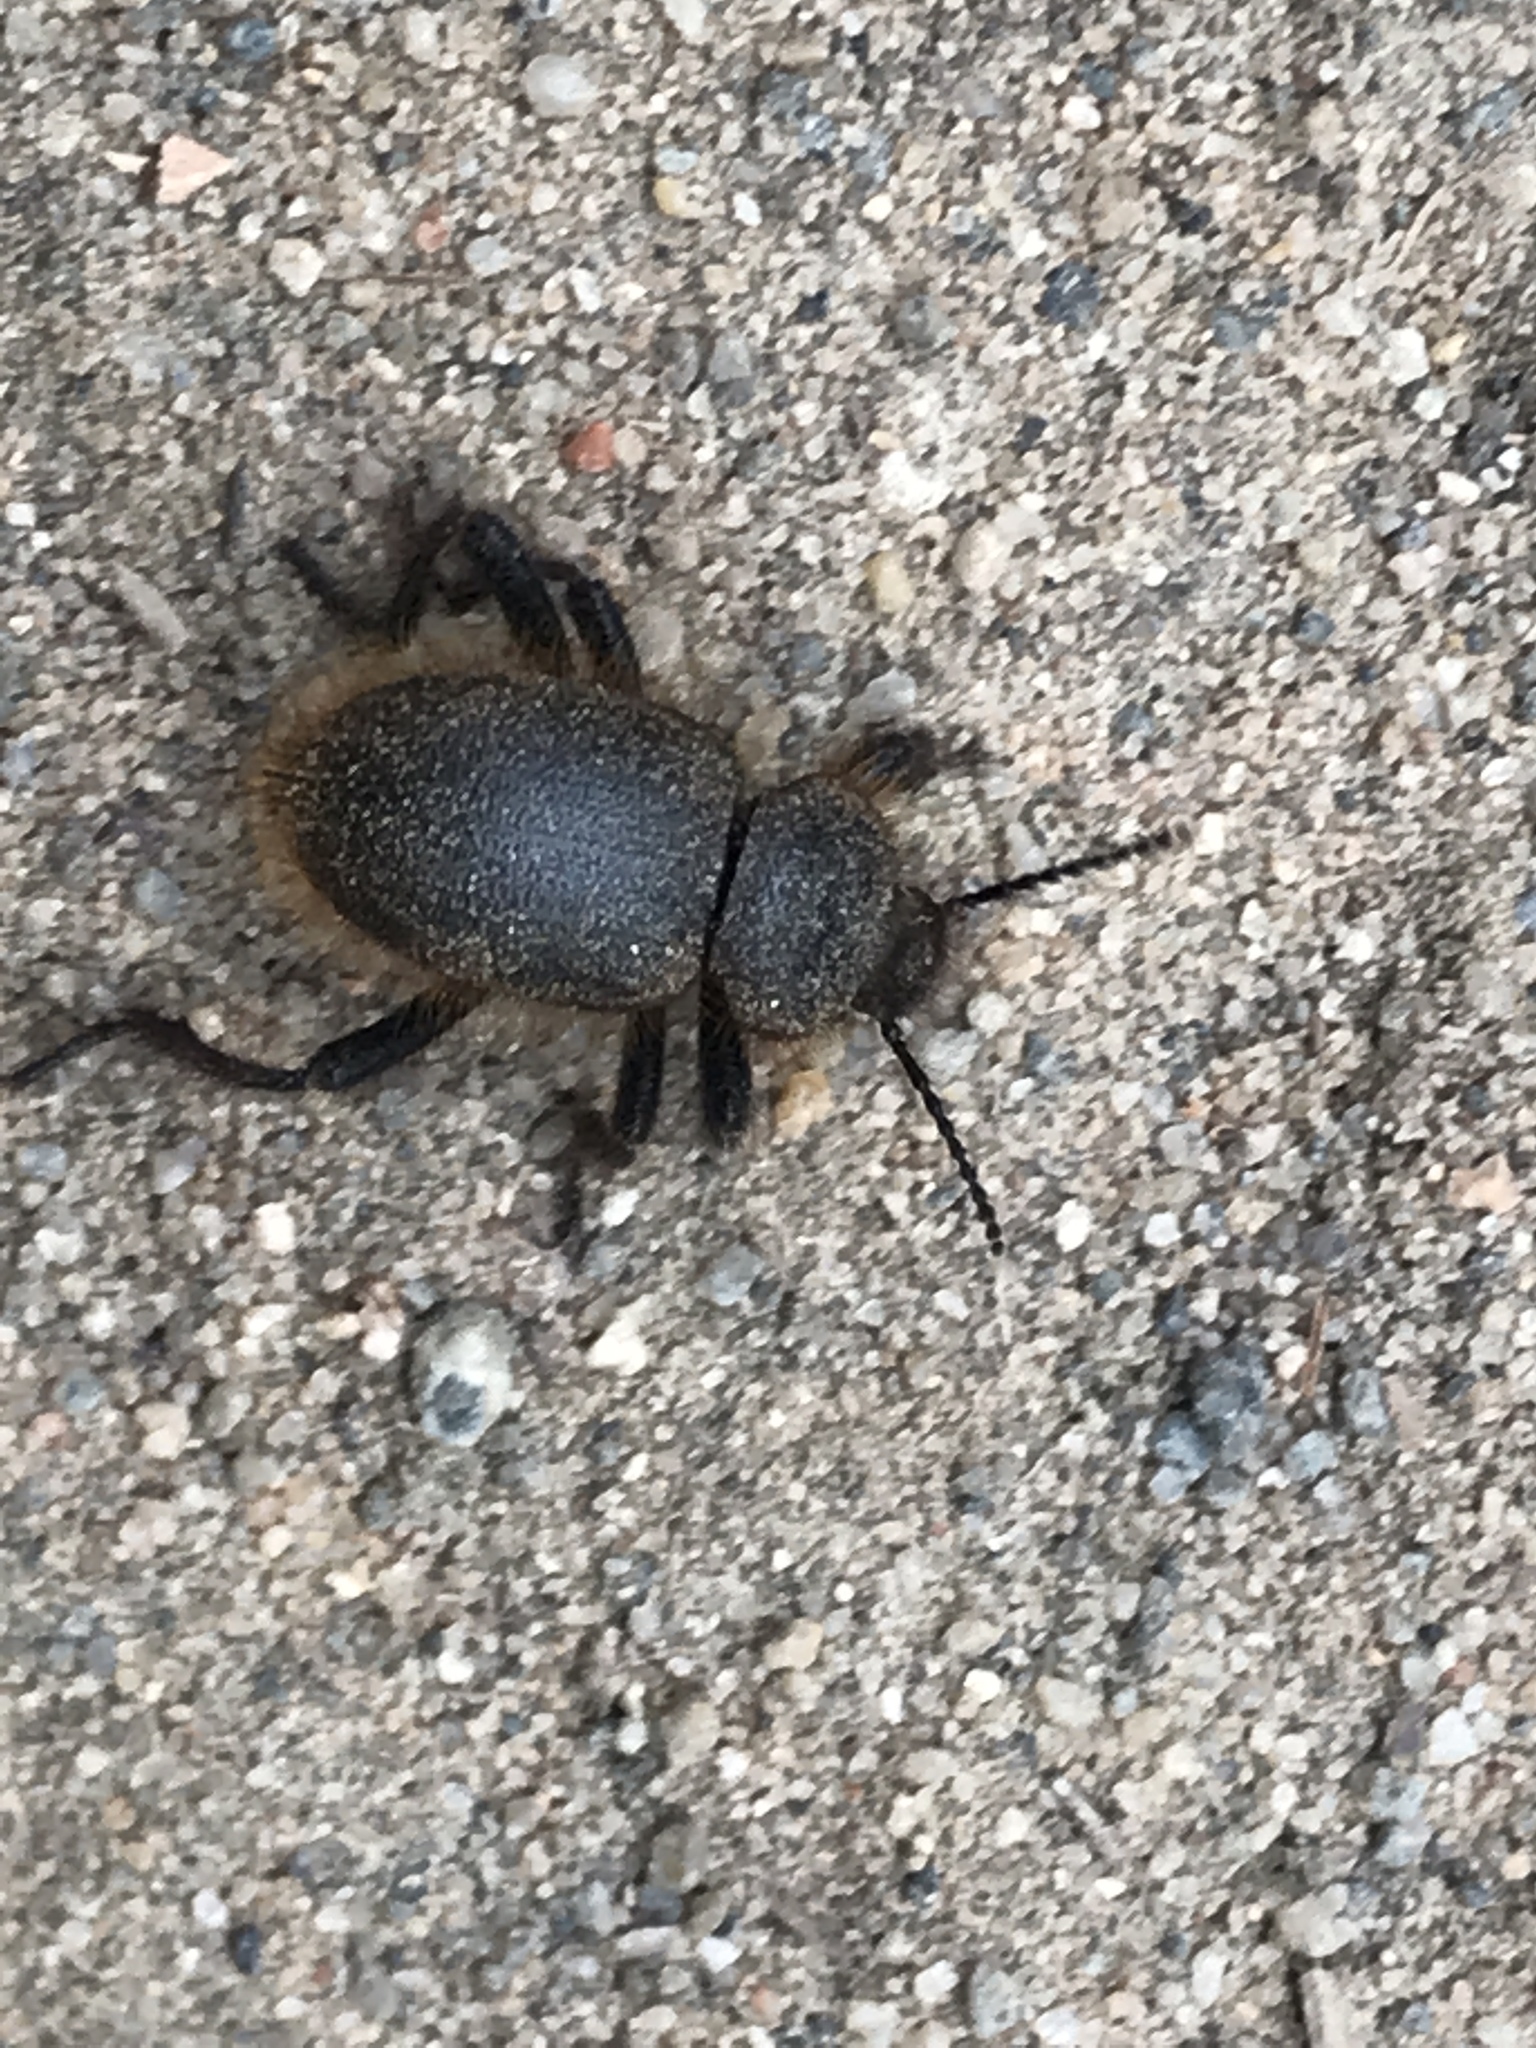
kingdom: Animalia
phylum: Arthropoda
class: Insecta
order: Coleoptera
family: Tenebrionidae
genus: Eleodes
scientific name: Eleodes osculans
